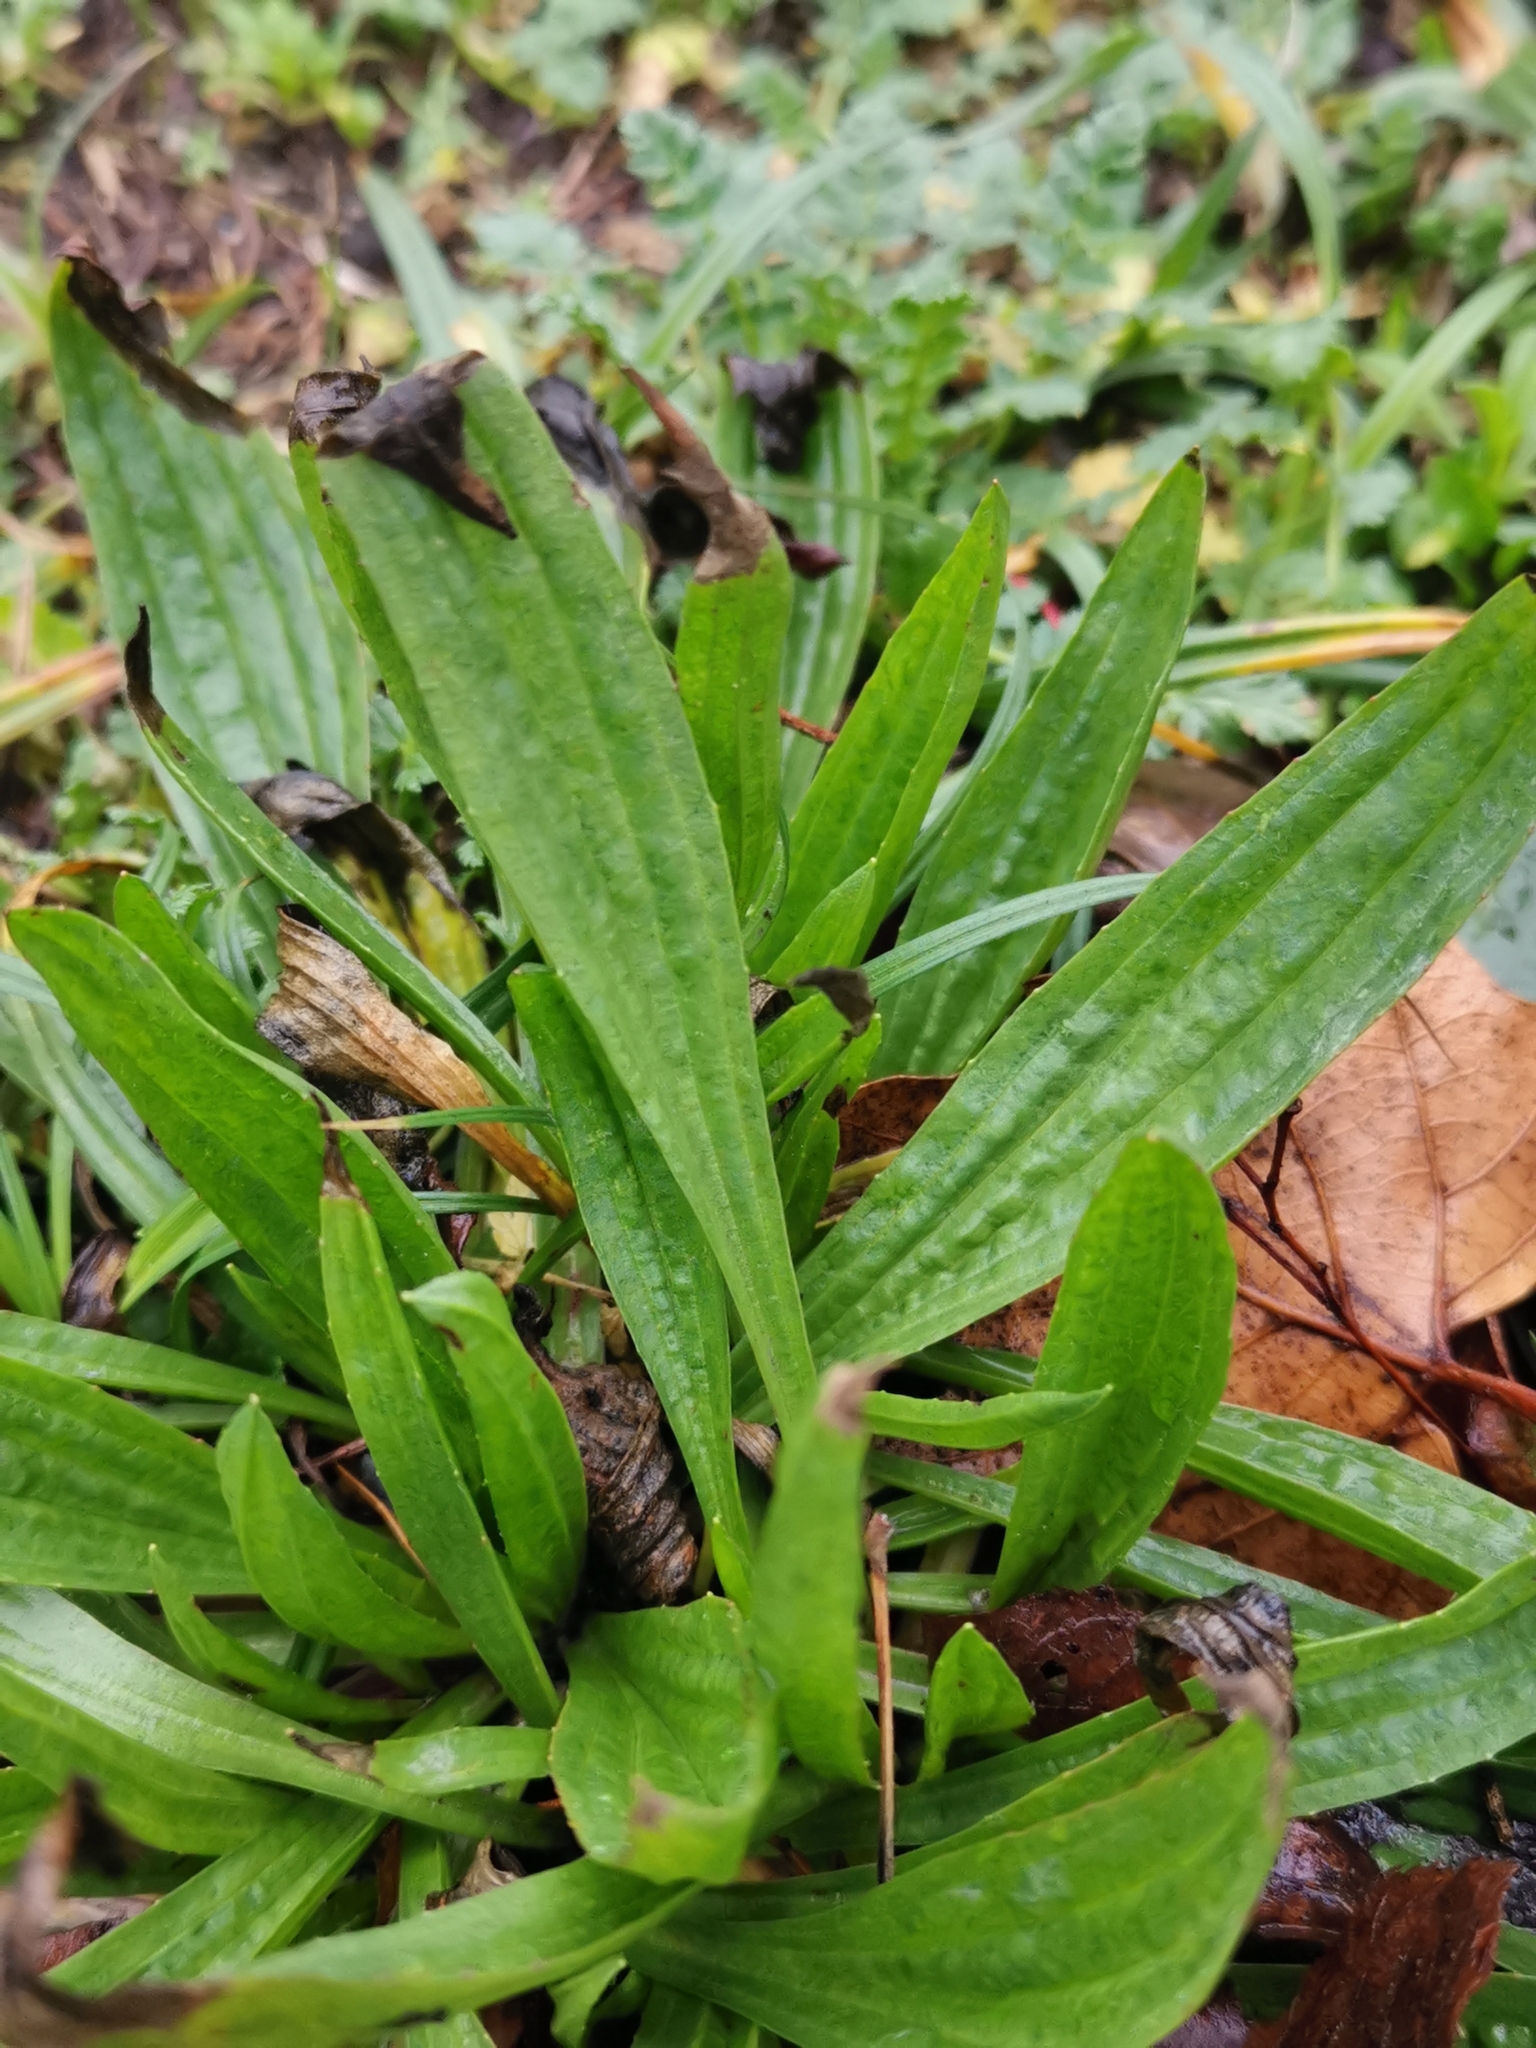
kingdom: Plantae
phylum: Tracheophyta
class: Magnoliopsida
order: Lamiales
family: Plantaginaceae
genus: Plantago
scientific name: Plantago lanceolata
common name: Ribwort plantain
